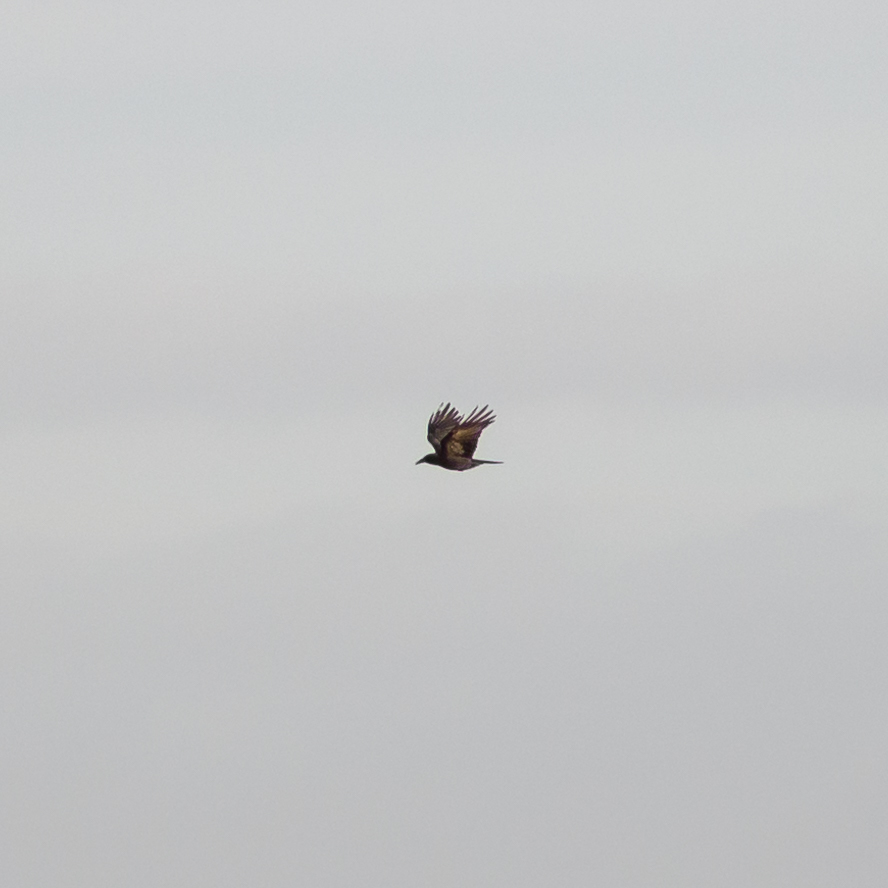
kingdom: Animalia
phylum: Chordata
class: Aves
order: Passeriformes
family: Corvidae
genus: Corvus
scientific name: Corvus corone
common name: Carrion crow
